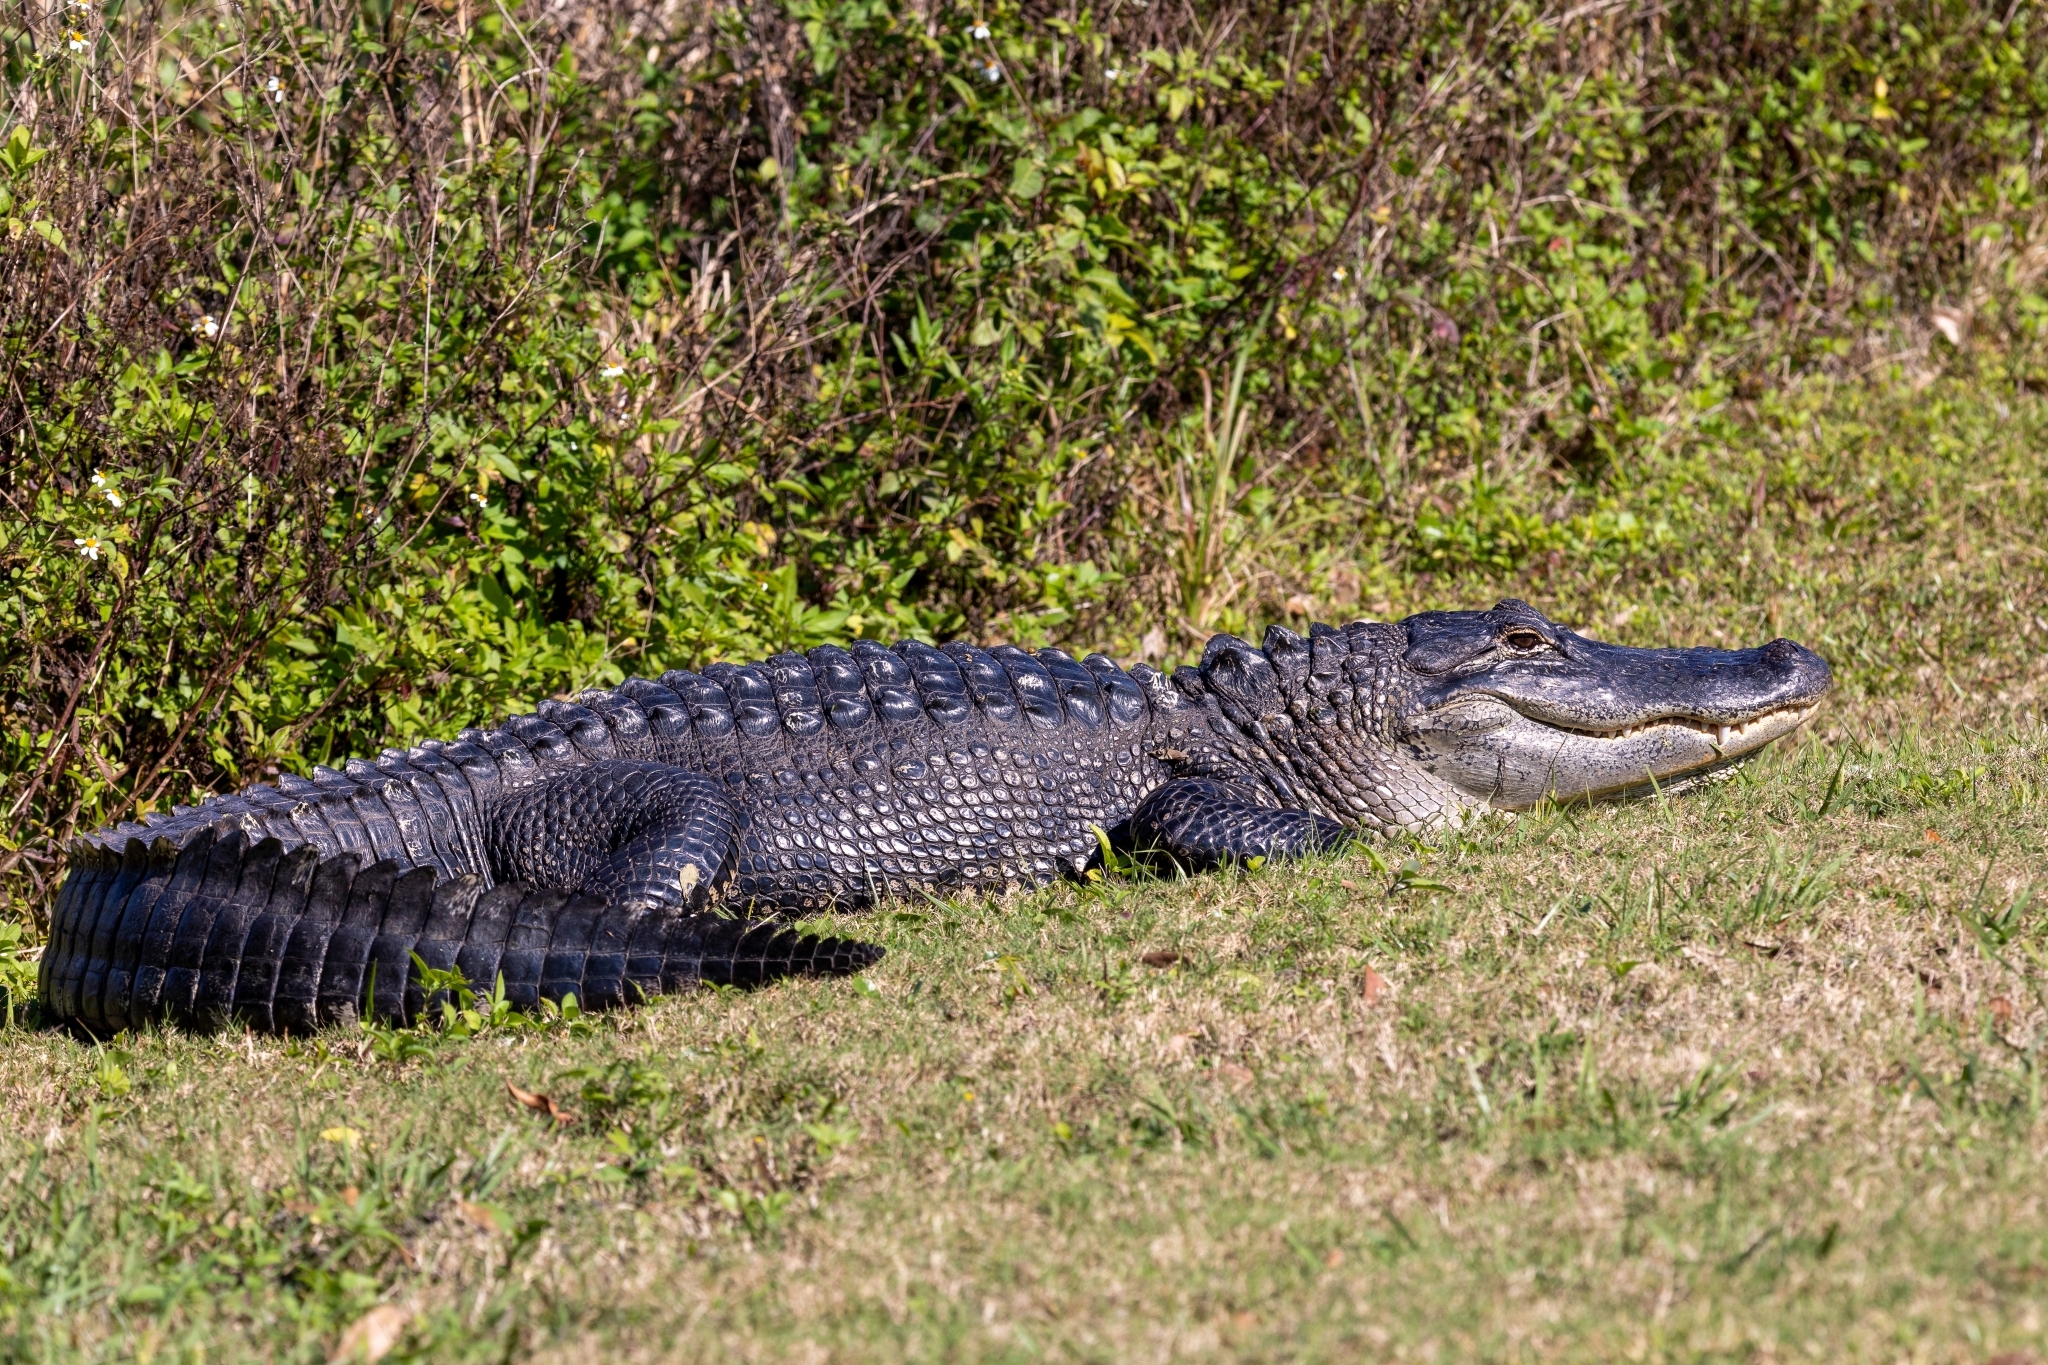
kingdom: Animalia
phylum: Chordata
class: Crocodylia
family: Alligatoridae
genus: Alligator
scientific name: Alligator mississippiensis
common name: American alligator
